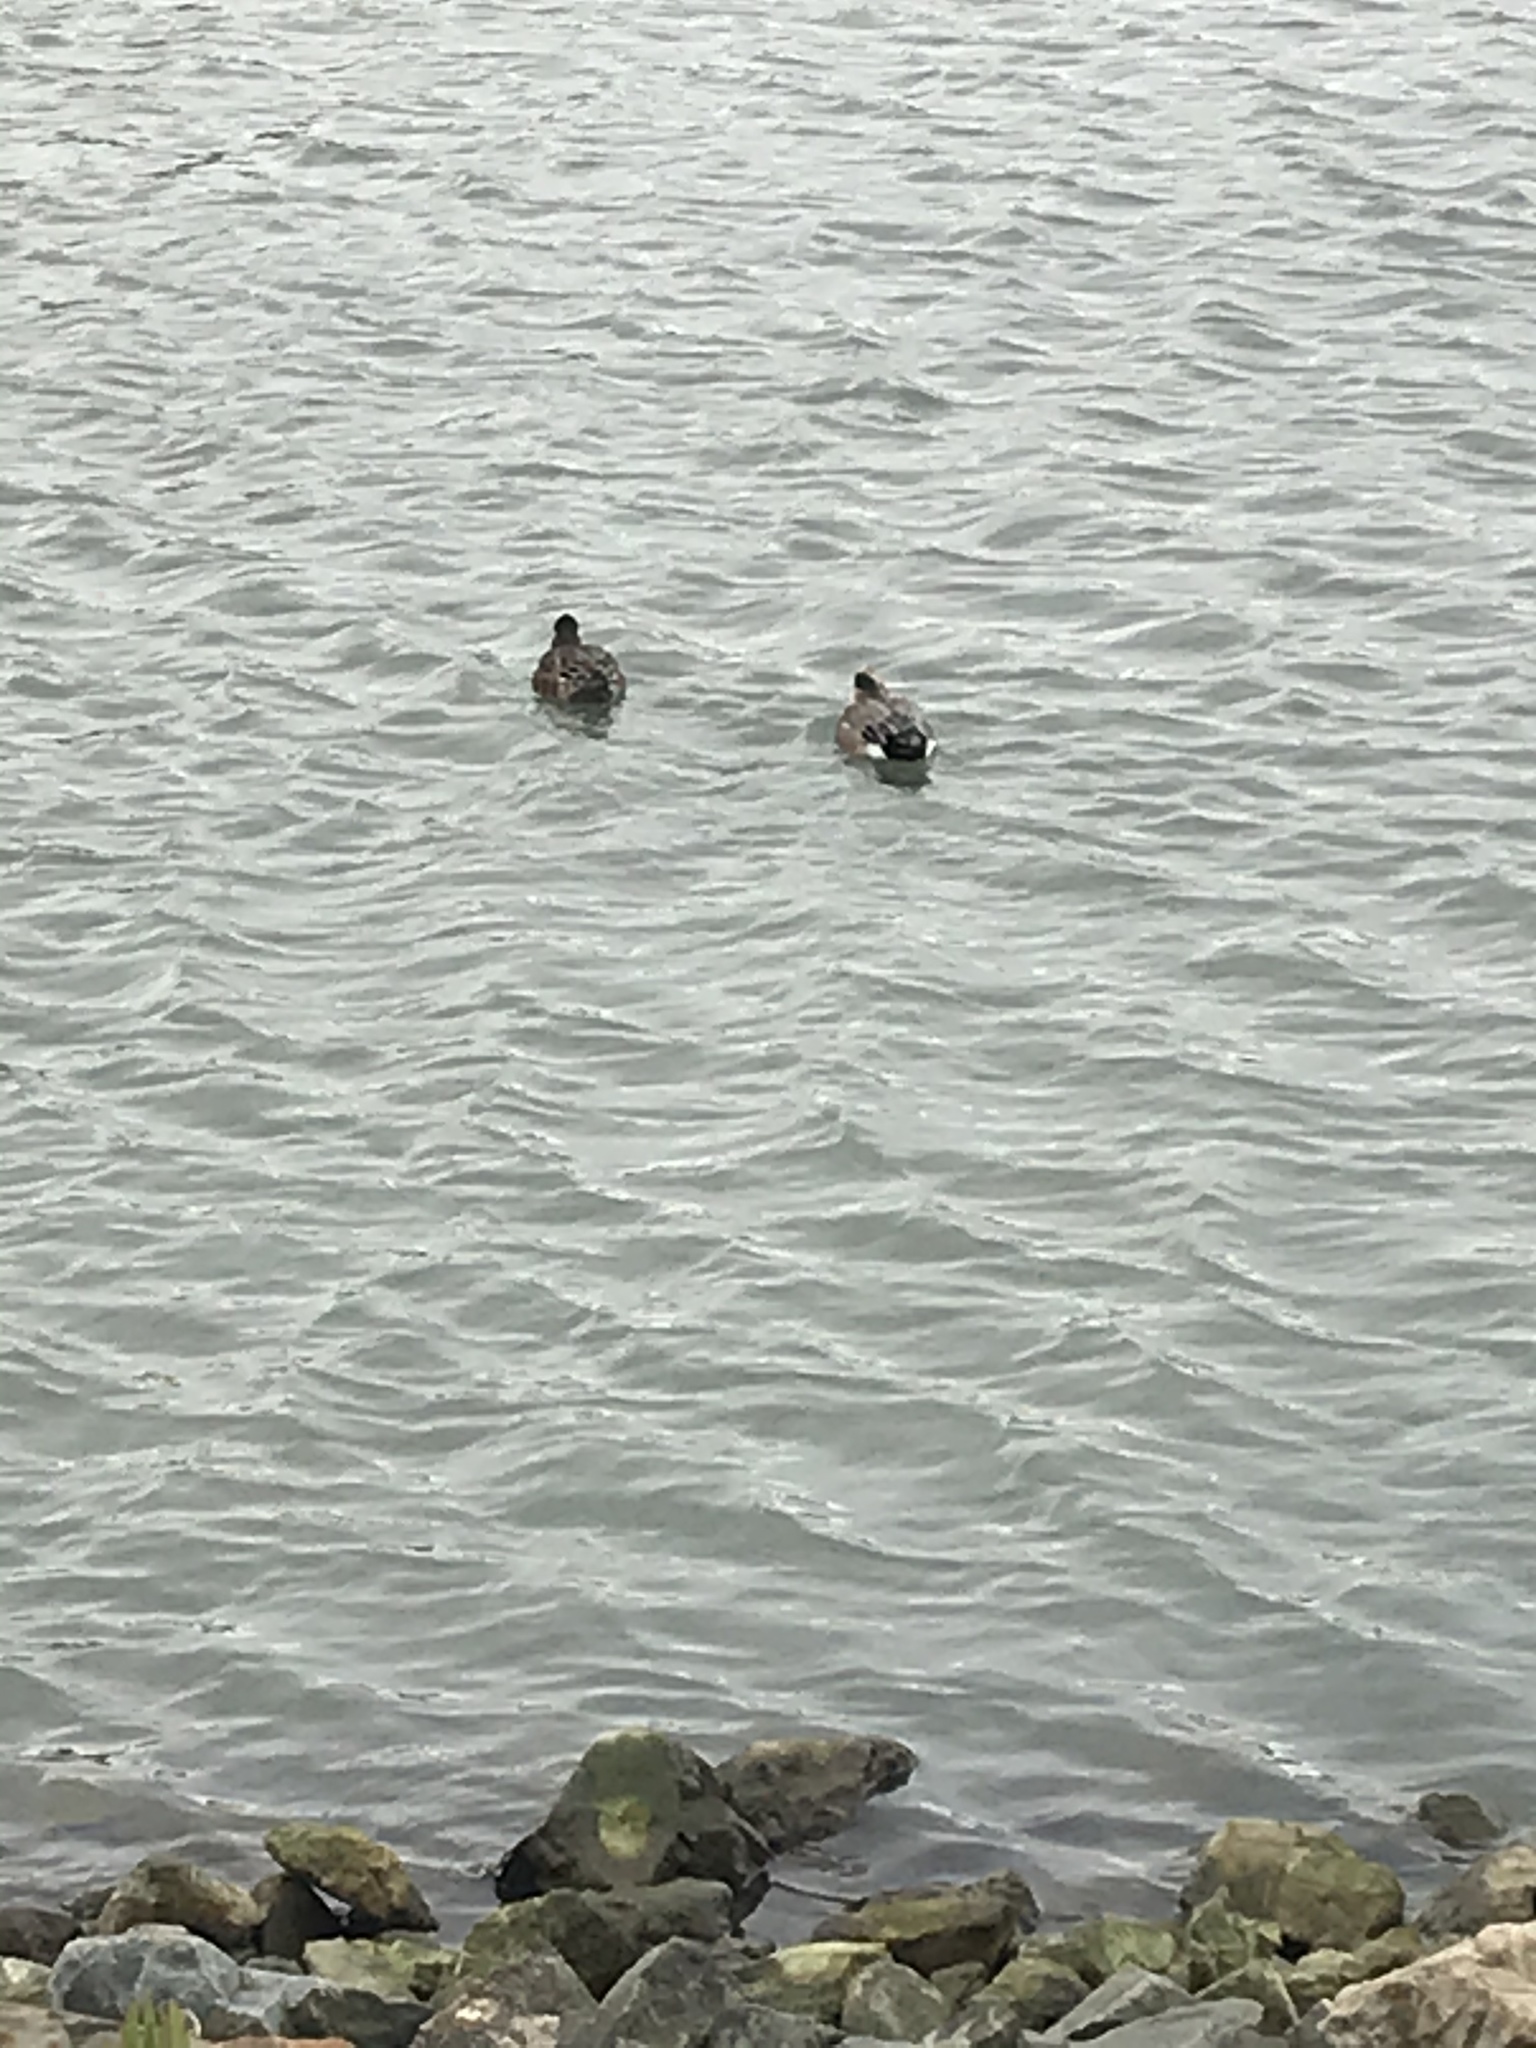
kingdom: Animalia
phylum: Chordata
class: Aves
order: Anseriformes
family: Anatidae
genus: Mareca
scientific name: Mareca americana
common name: American wigeon
